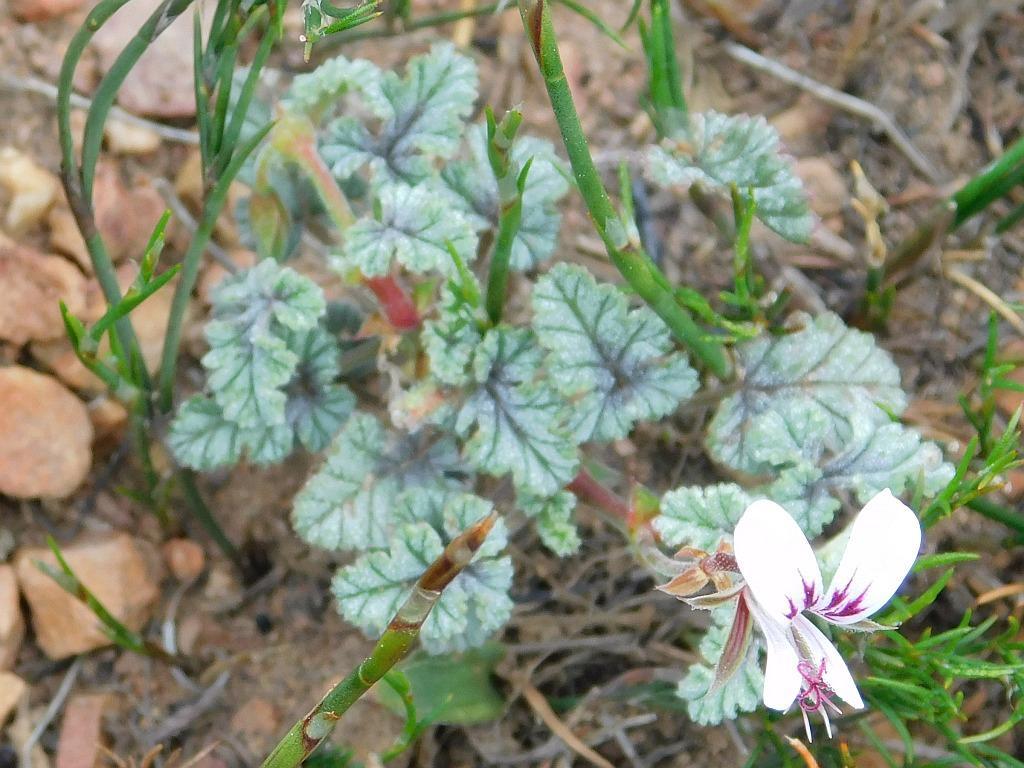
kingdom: Plantae
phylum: Tracheophyta
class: Magnoliopsida
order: Geraniales
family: Geraniaceae
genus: Pelargonium
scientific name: Pelargonium candicans
